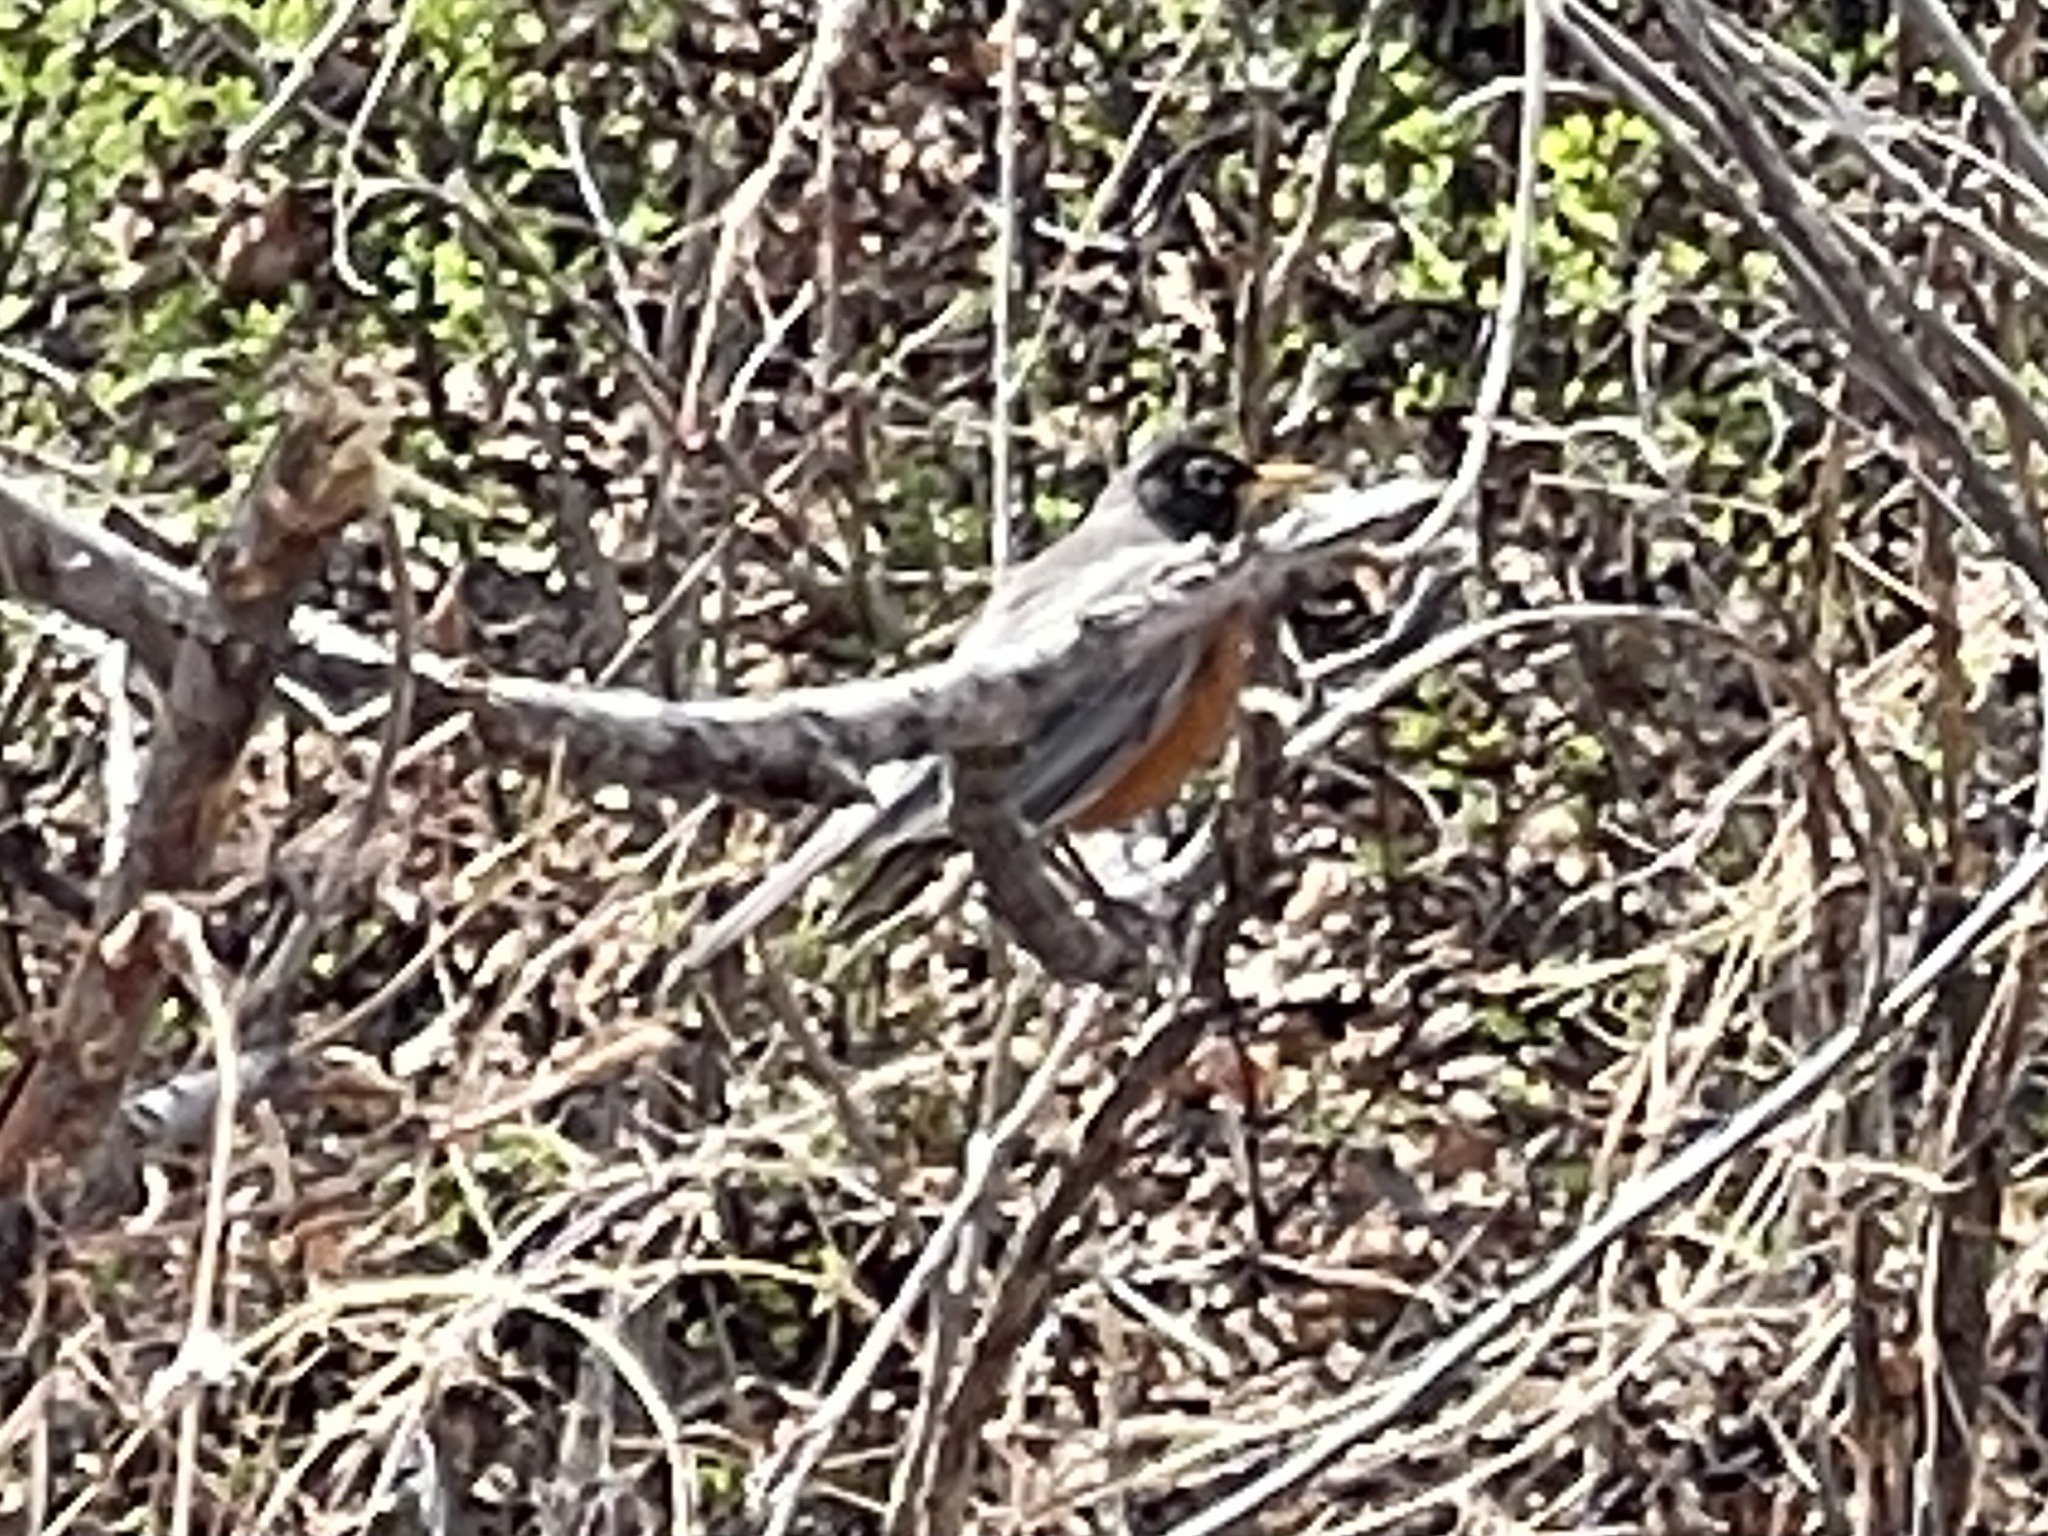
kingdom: Animalia
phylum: Chordata
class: Aves
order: Passeriformes
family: Turdidae
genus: Turdus
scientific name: Turdus migratorius
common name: American robin
